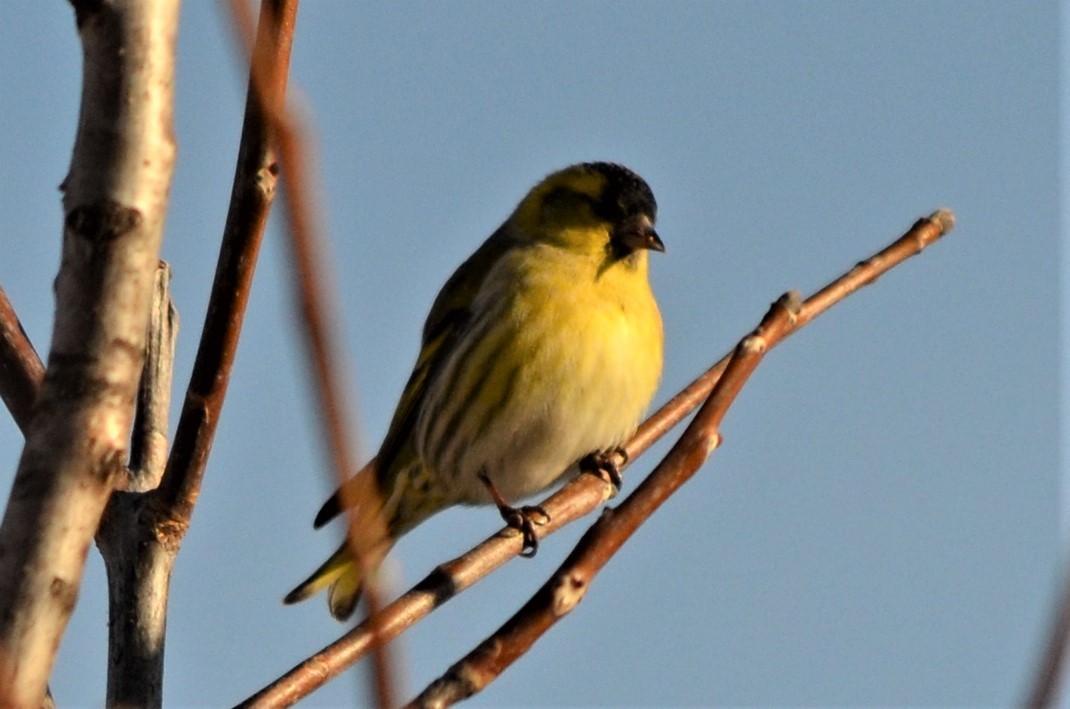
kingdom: Animalia
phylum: Chordata
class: Aves
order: Passeriformes
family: Fringillidae
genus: Spinus
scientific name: Spinus spinus
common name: Eurasian siskin
